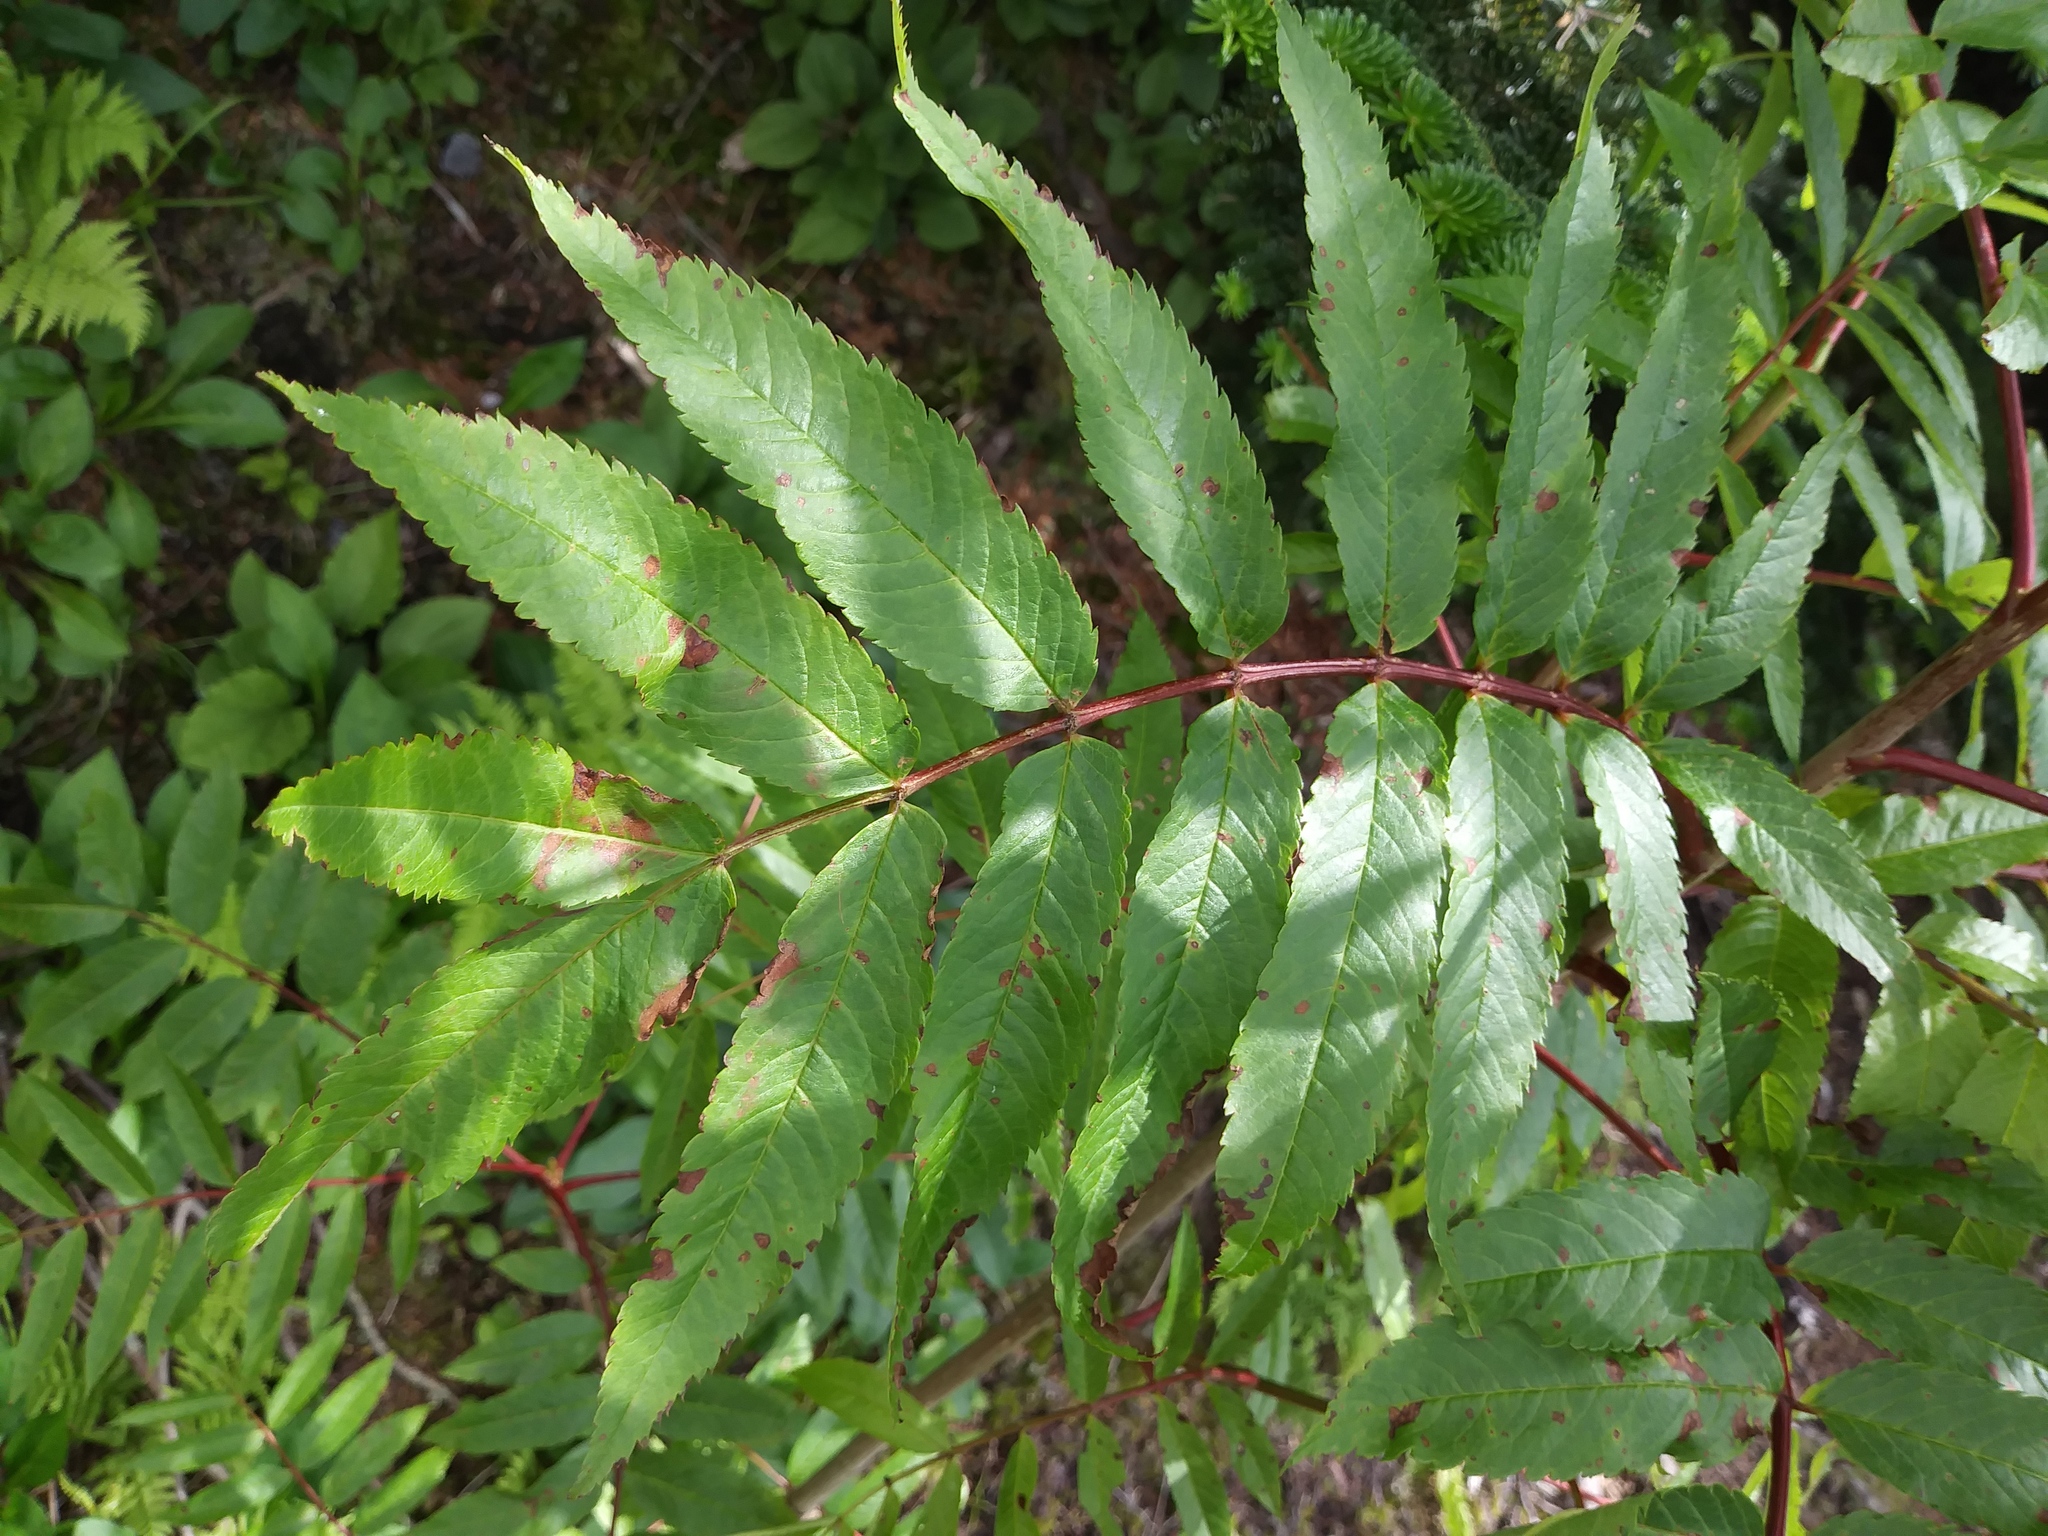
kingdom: Plantae
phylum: Tracheophyta
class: Magnoliopsida
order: Rosales
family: Rosaceae
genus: Sorbus
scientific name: Sorbus americana
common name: American mountain-ash
